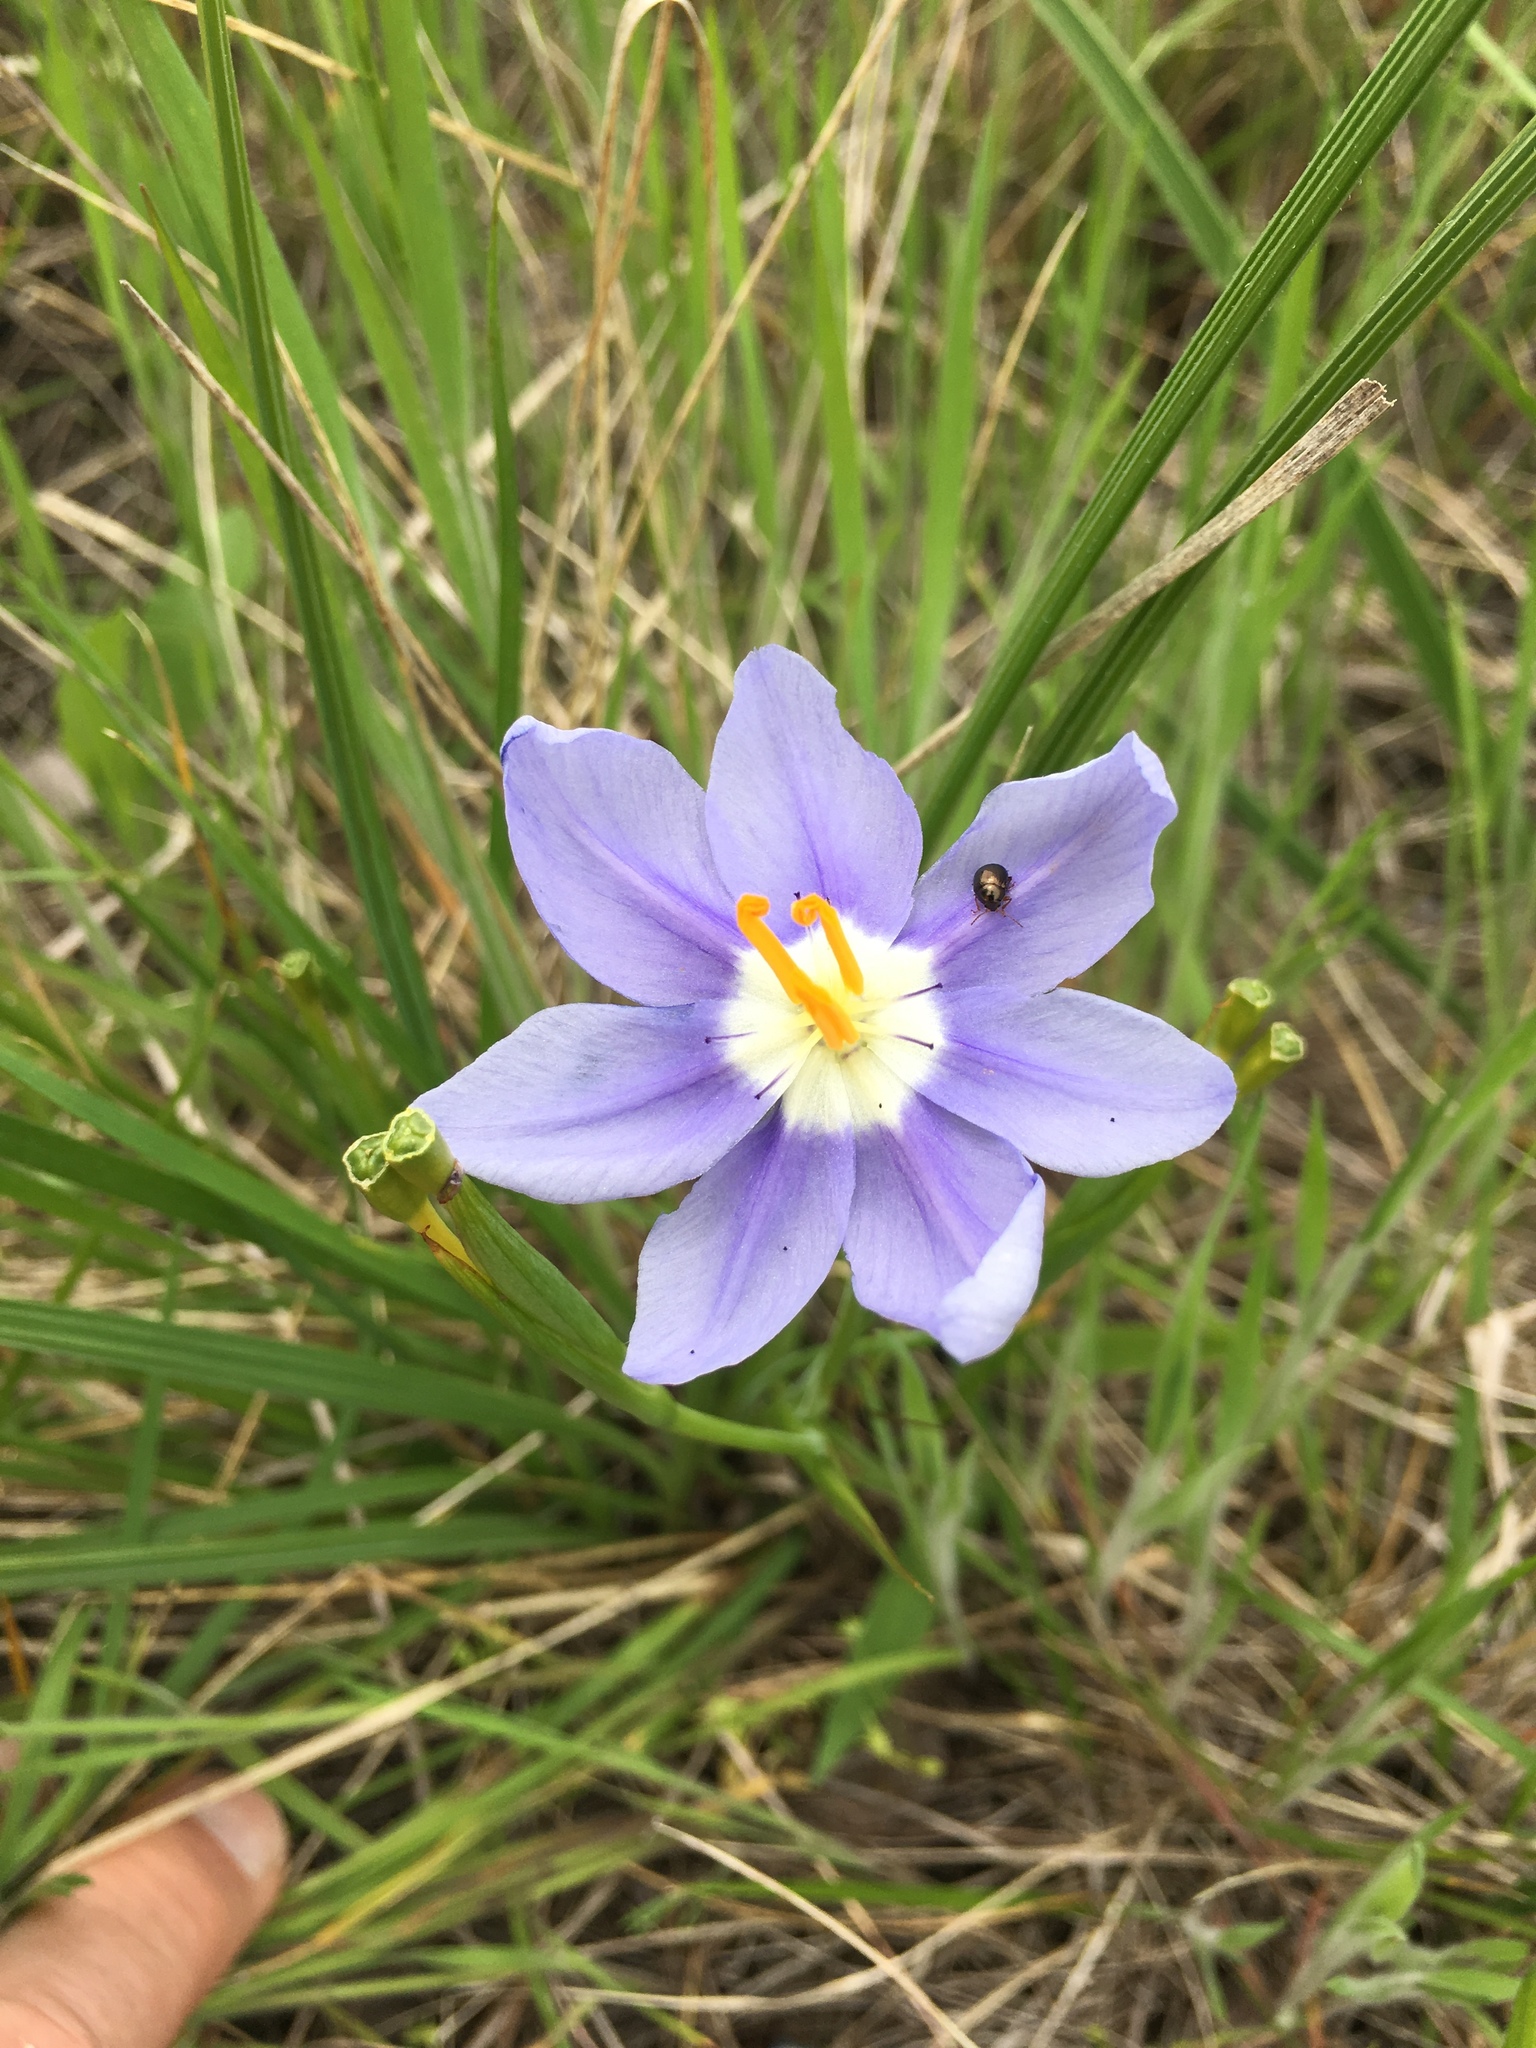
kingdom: Plantae
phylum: Tracheophyta
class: Liliopsida
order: Asparagales
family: Iridaceae
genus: Nemastylis
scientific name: Nemastylis geminiflora
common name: Prairie celestial
